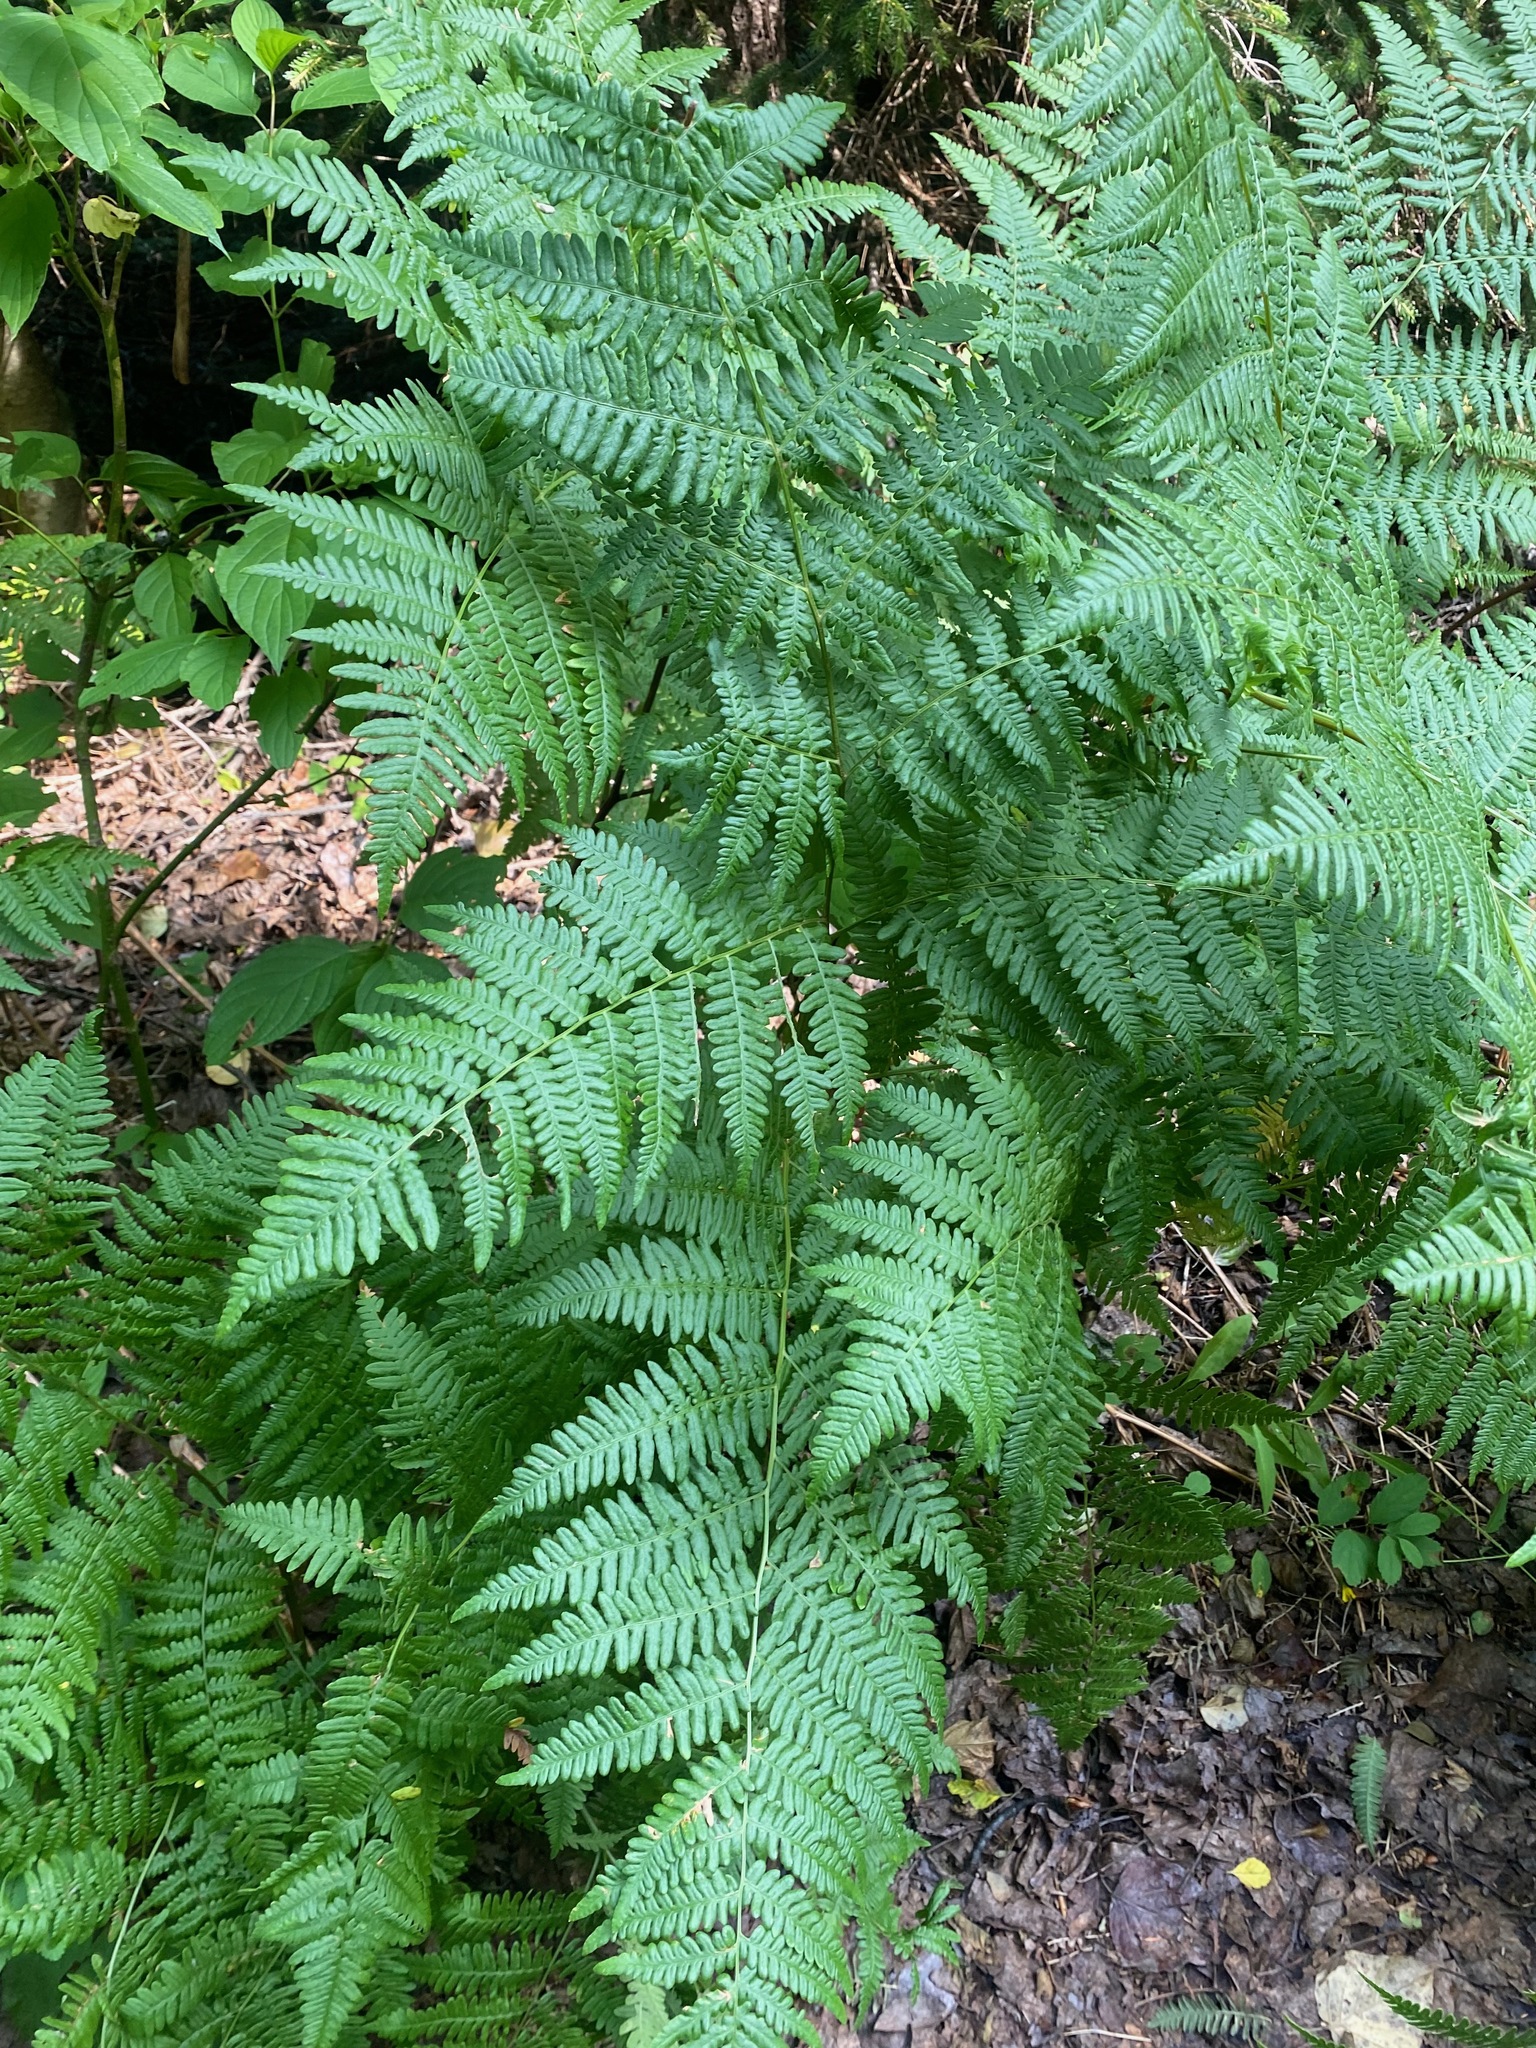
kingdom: Plantae
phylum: Tracheophyta
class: Polypodiopsida
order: Polypodiales
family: Dennstaedtiaceae
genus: Pteridium
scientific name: Pteridium aquilinum
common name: Bracken
